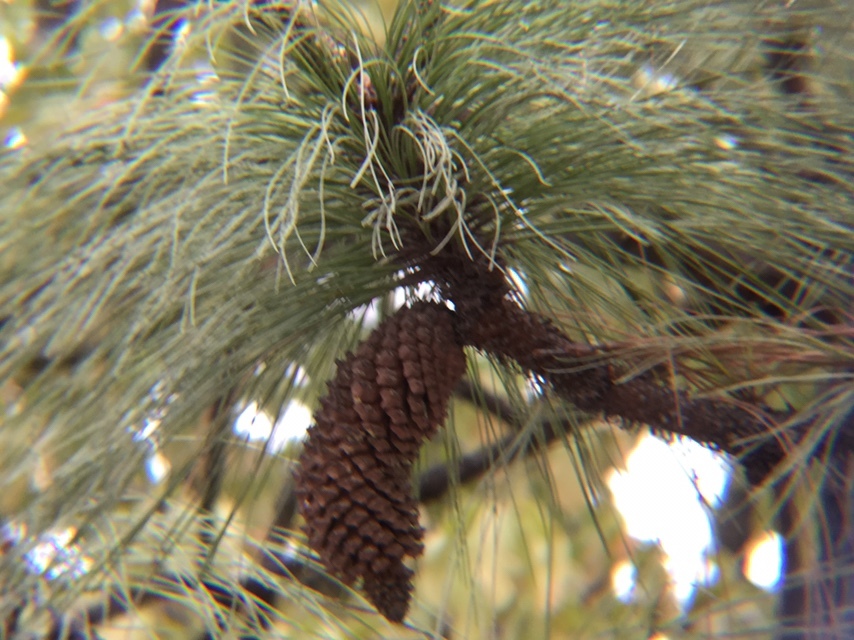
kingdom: Plantae
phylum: Tracheophyta
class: Pinopsida
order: Pinales
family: Pinaceae
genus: Pinus
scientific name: Pinus devoniana
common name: Michoacan pine
